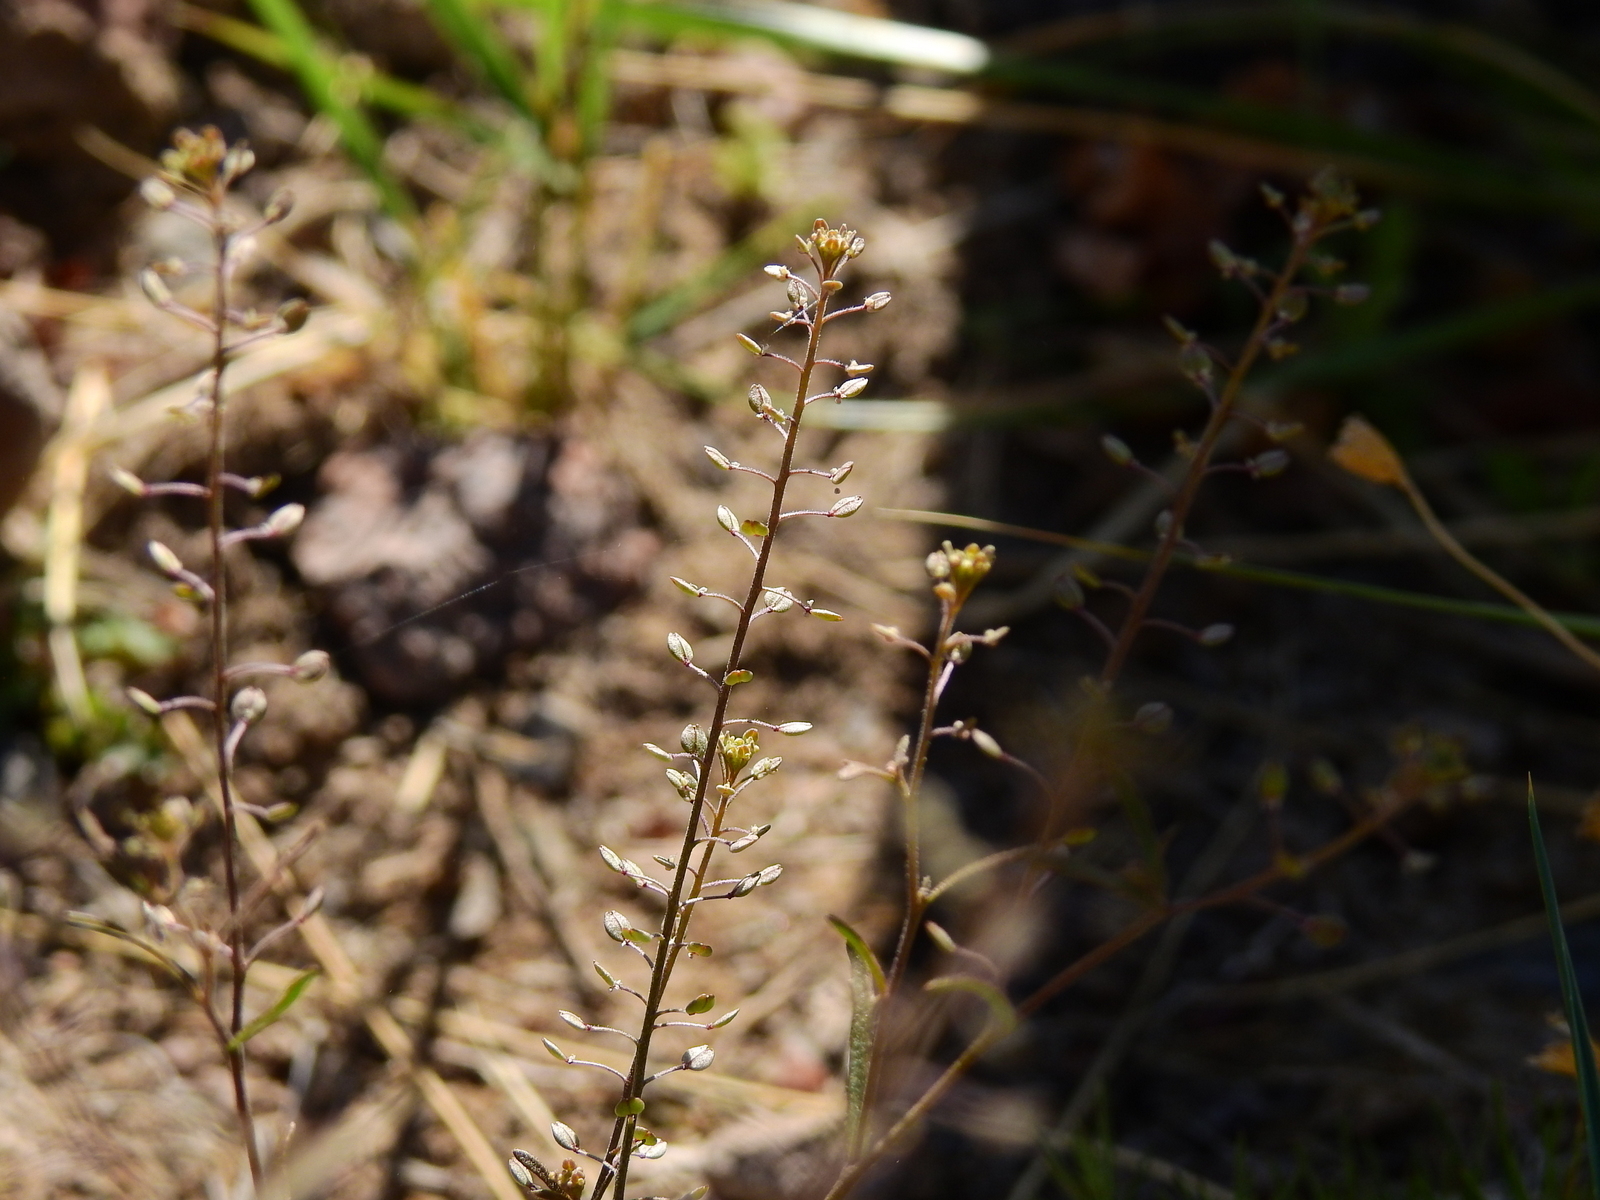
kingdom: Plantae
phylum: Tracheophyta
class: Magnoliopsida
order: Brassicales
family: Brassicaceae
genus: Lepidium
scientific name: Lepidium myrianthum
